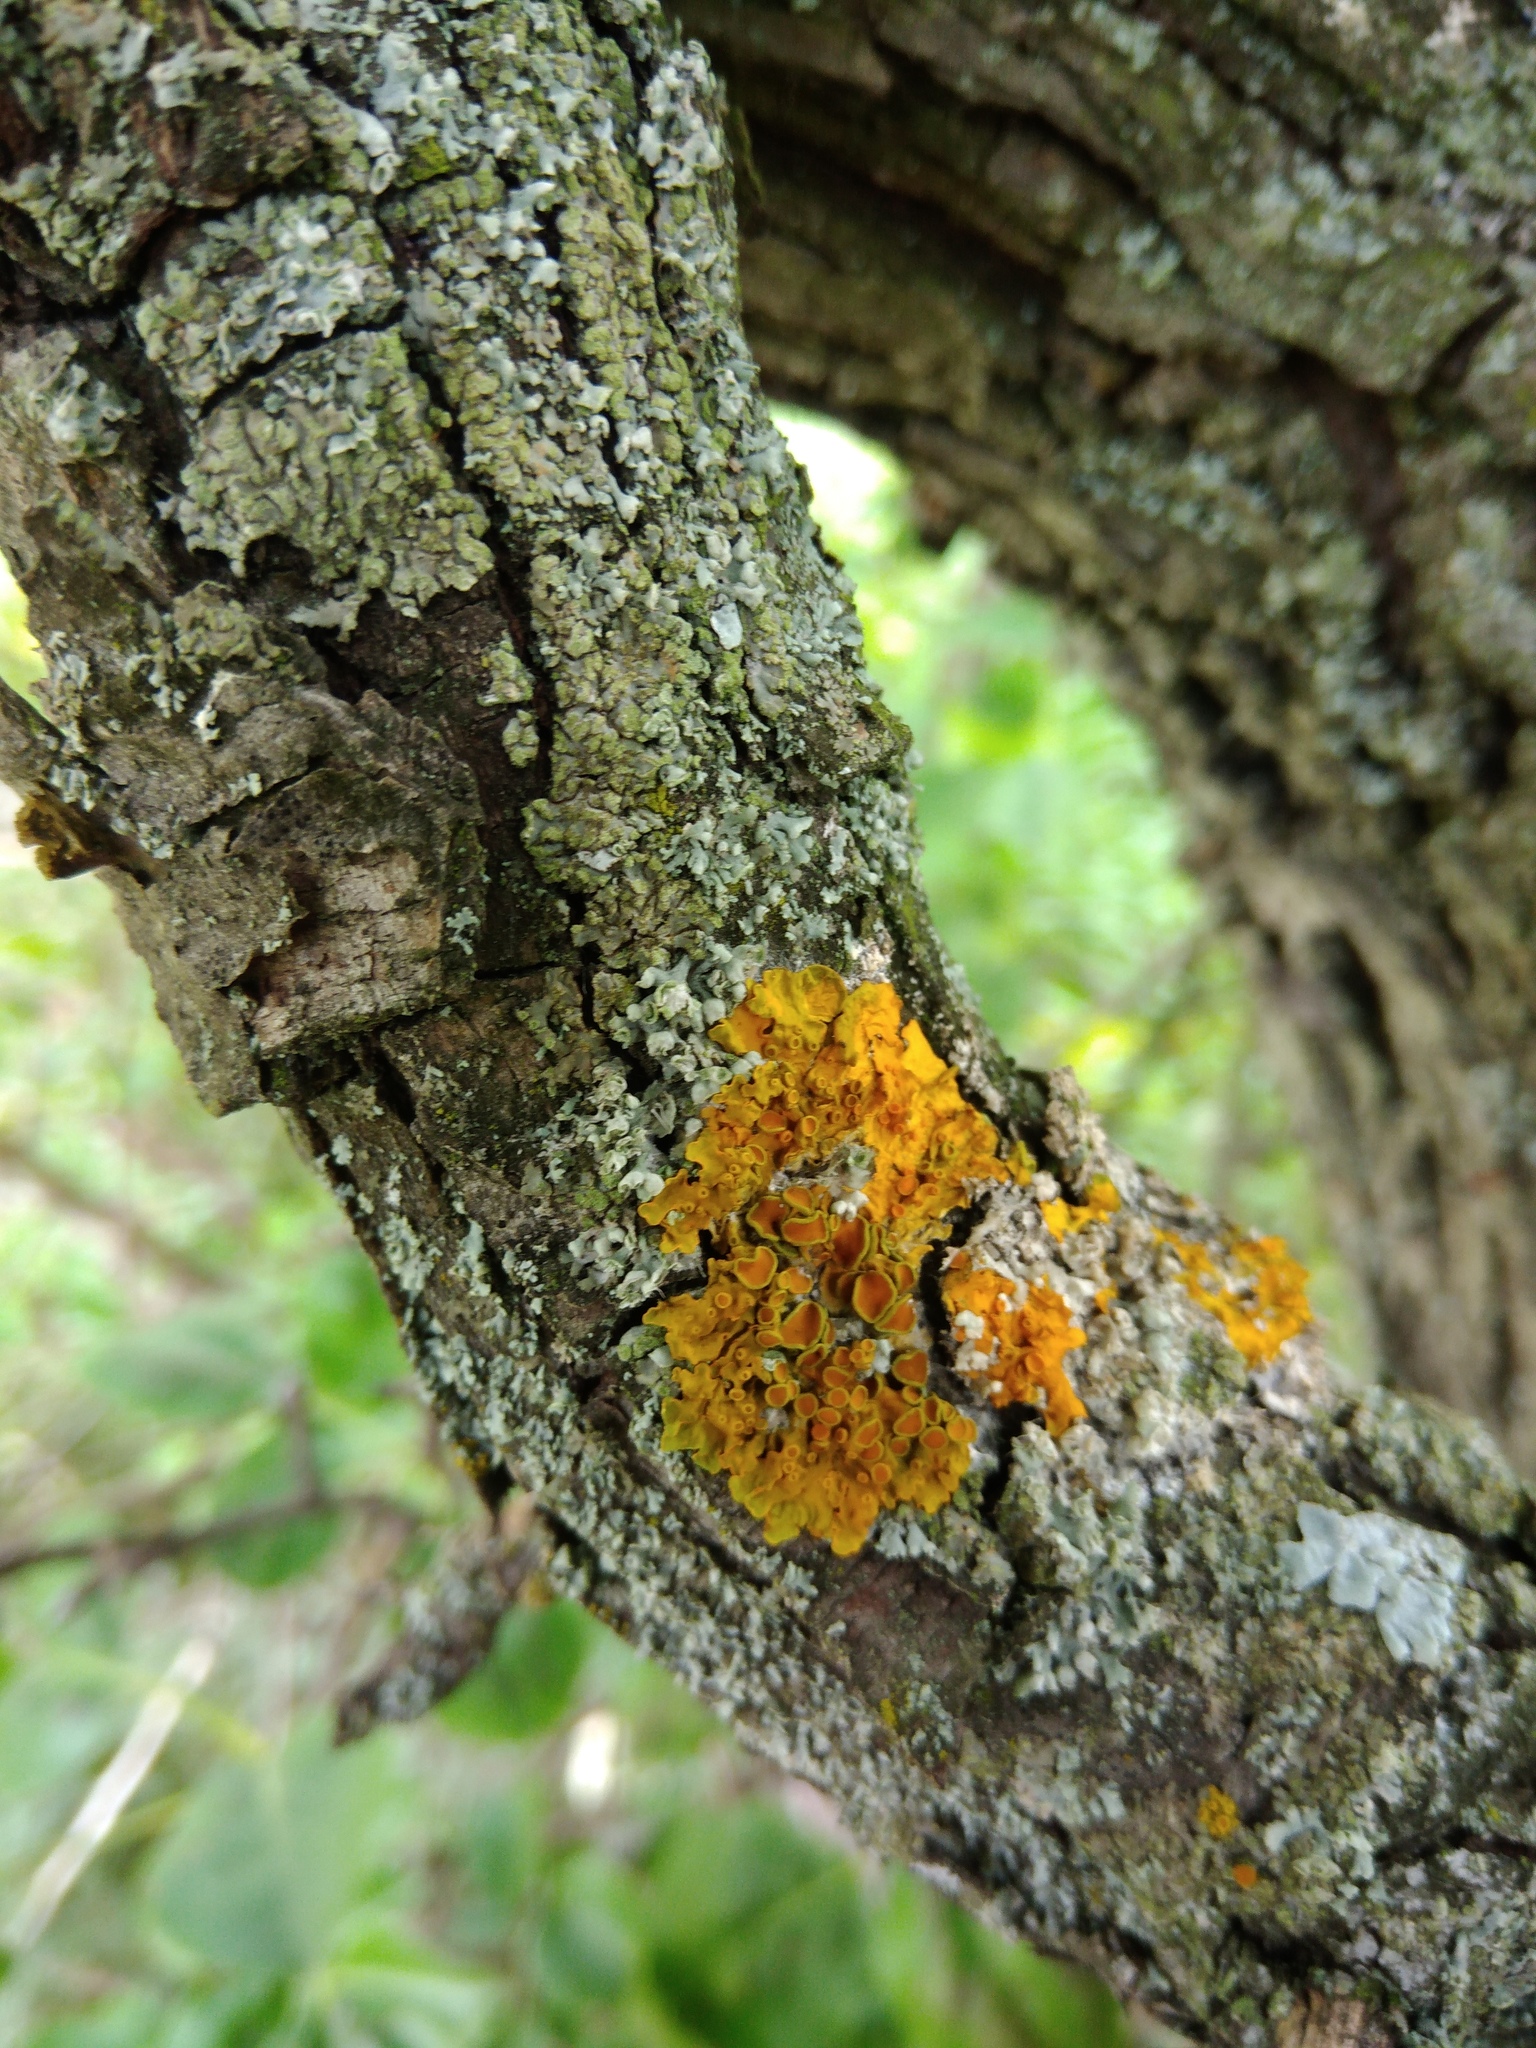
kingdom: Fungi
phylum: Basidiomycota
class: Agaricomycetes
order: Atheliales
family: Atheliaceae
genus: Athelia
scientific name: Athelia arachnoidea
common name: Candelabra duster
